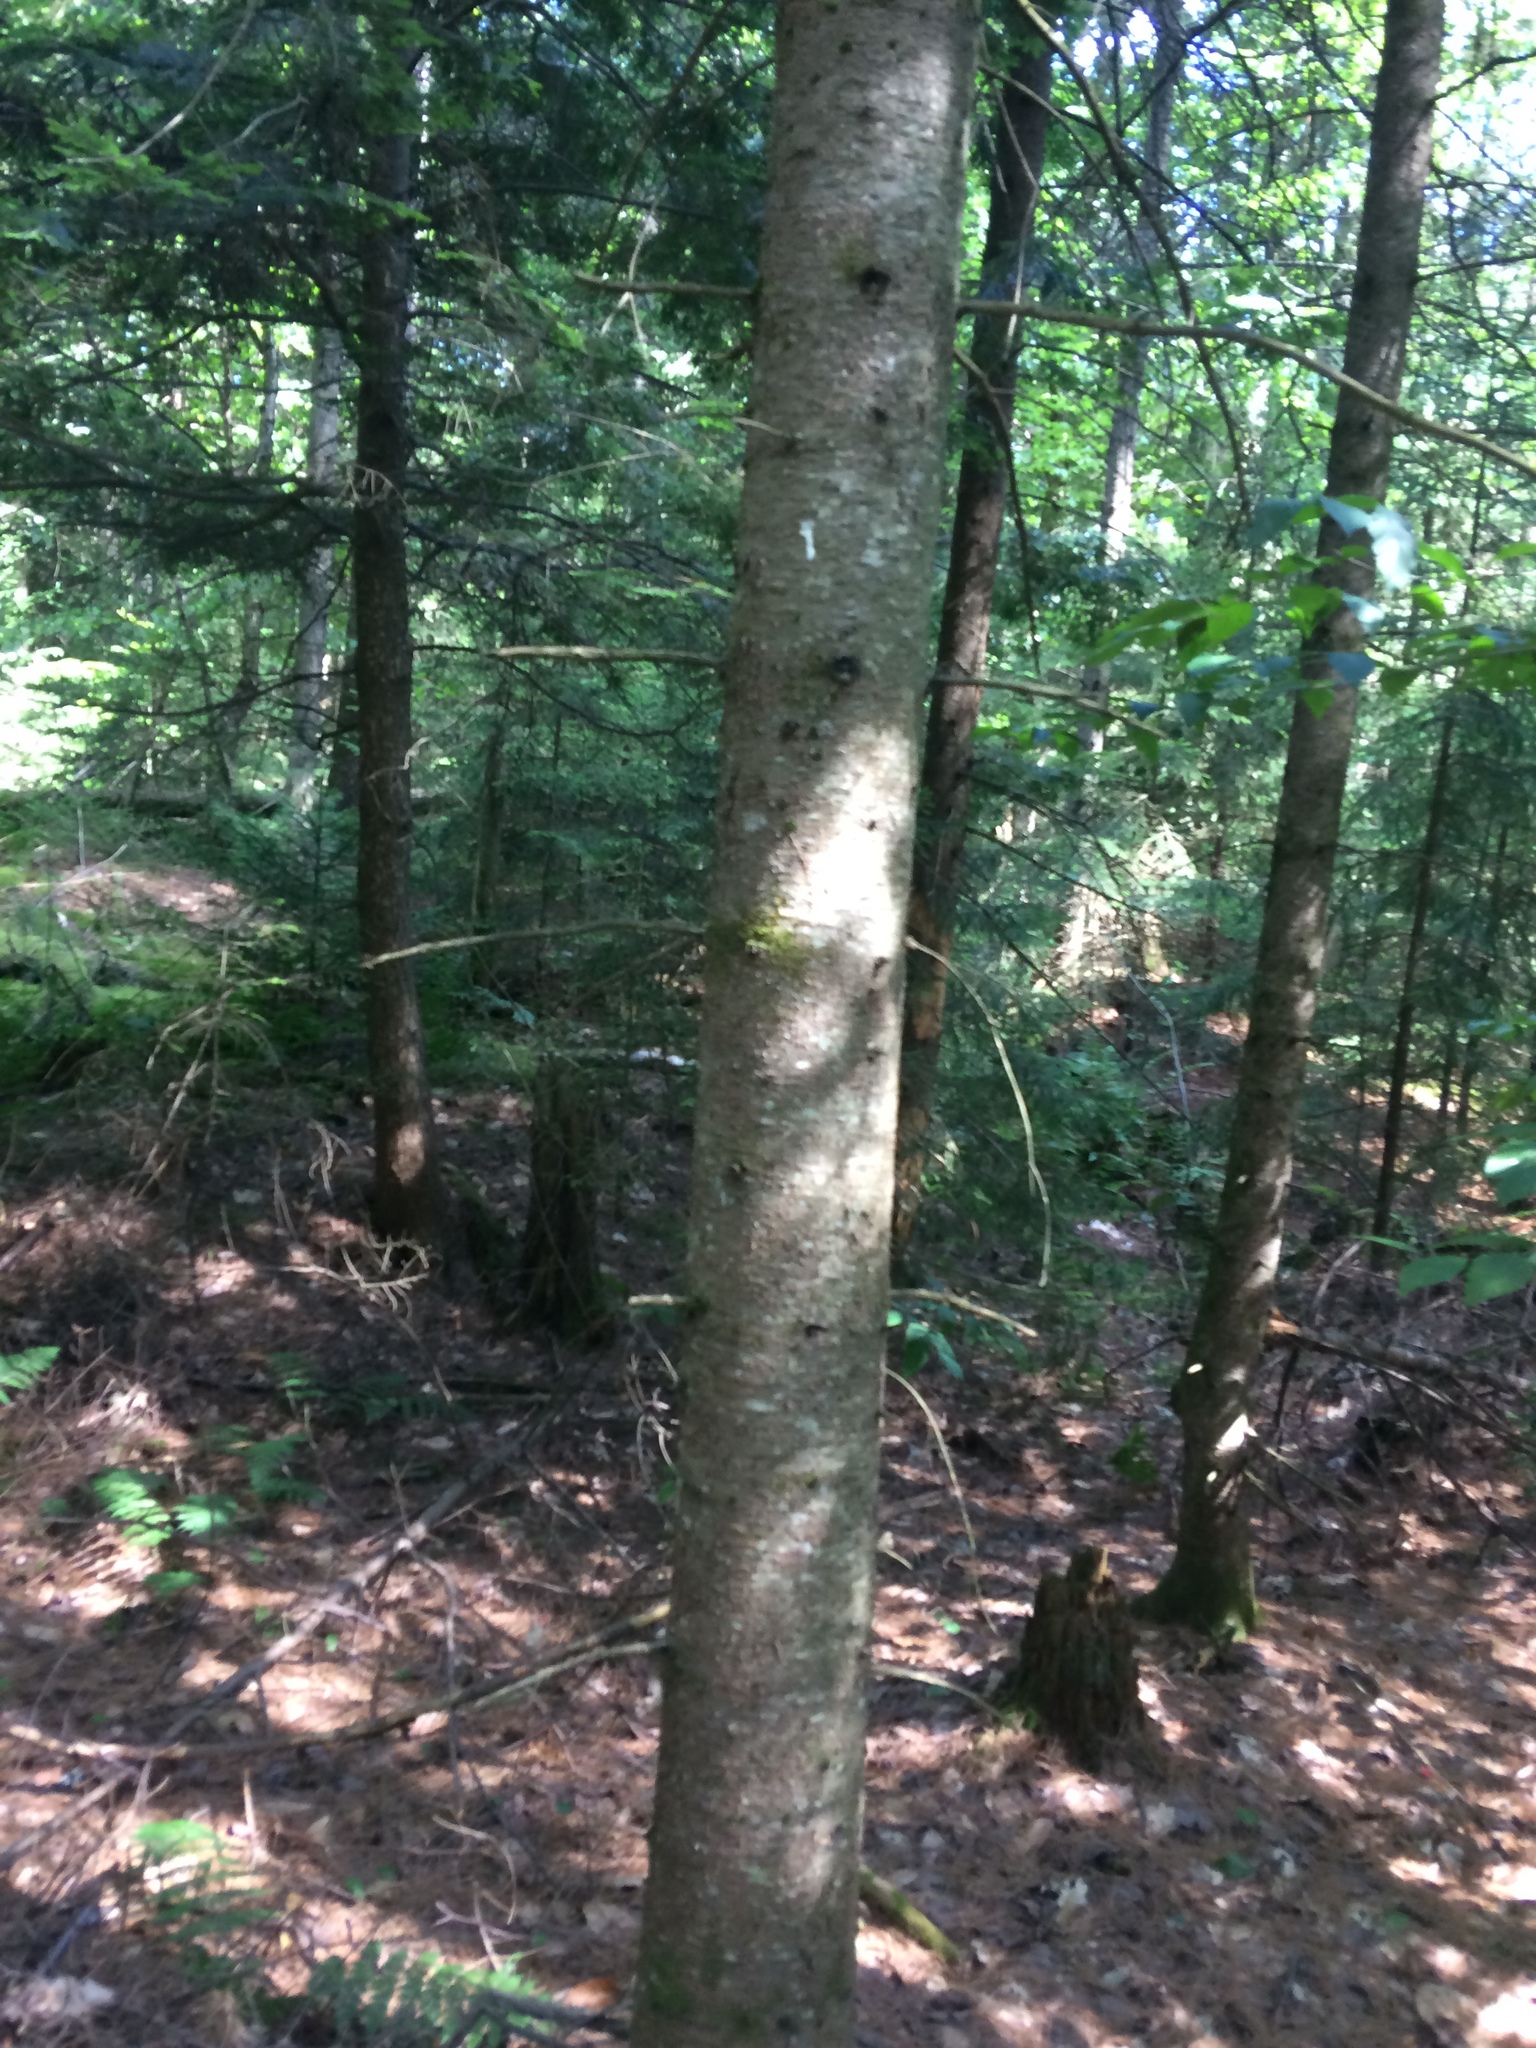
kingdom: Plantae
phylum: Tracheophyta
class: Pinopsida
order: Pinales
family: Pinaceae
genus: Abies
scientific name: Abies balsamea
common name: Balsam fir
